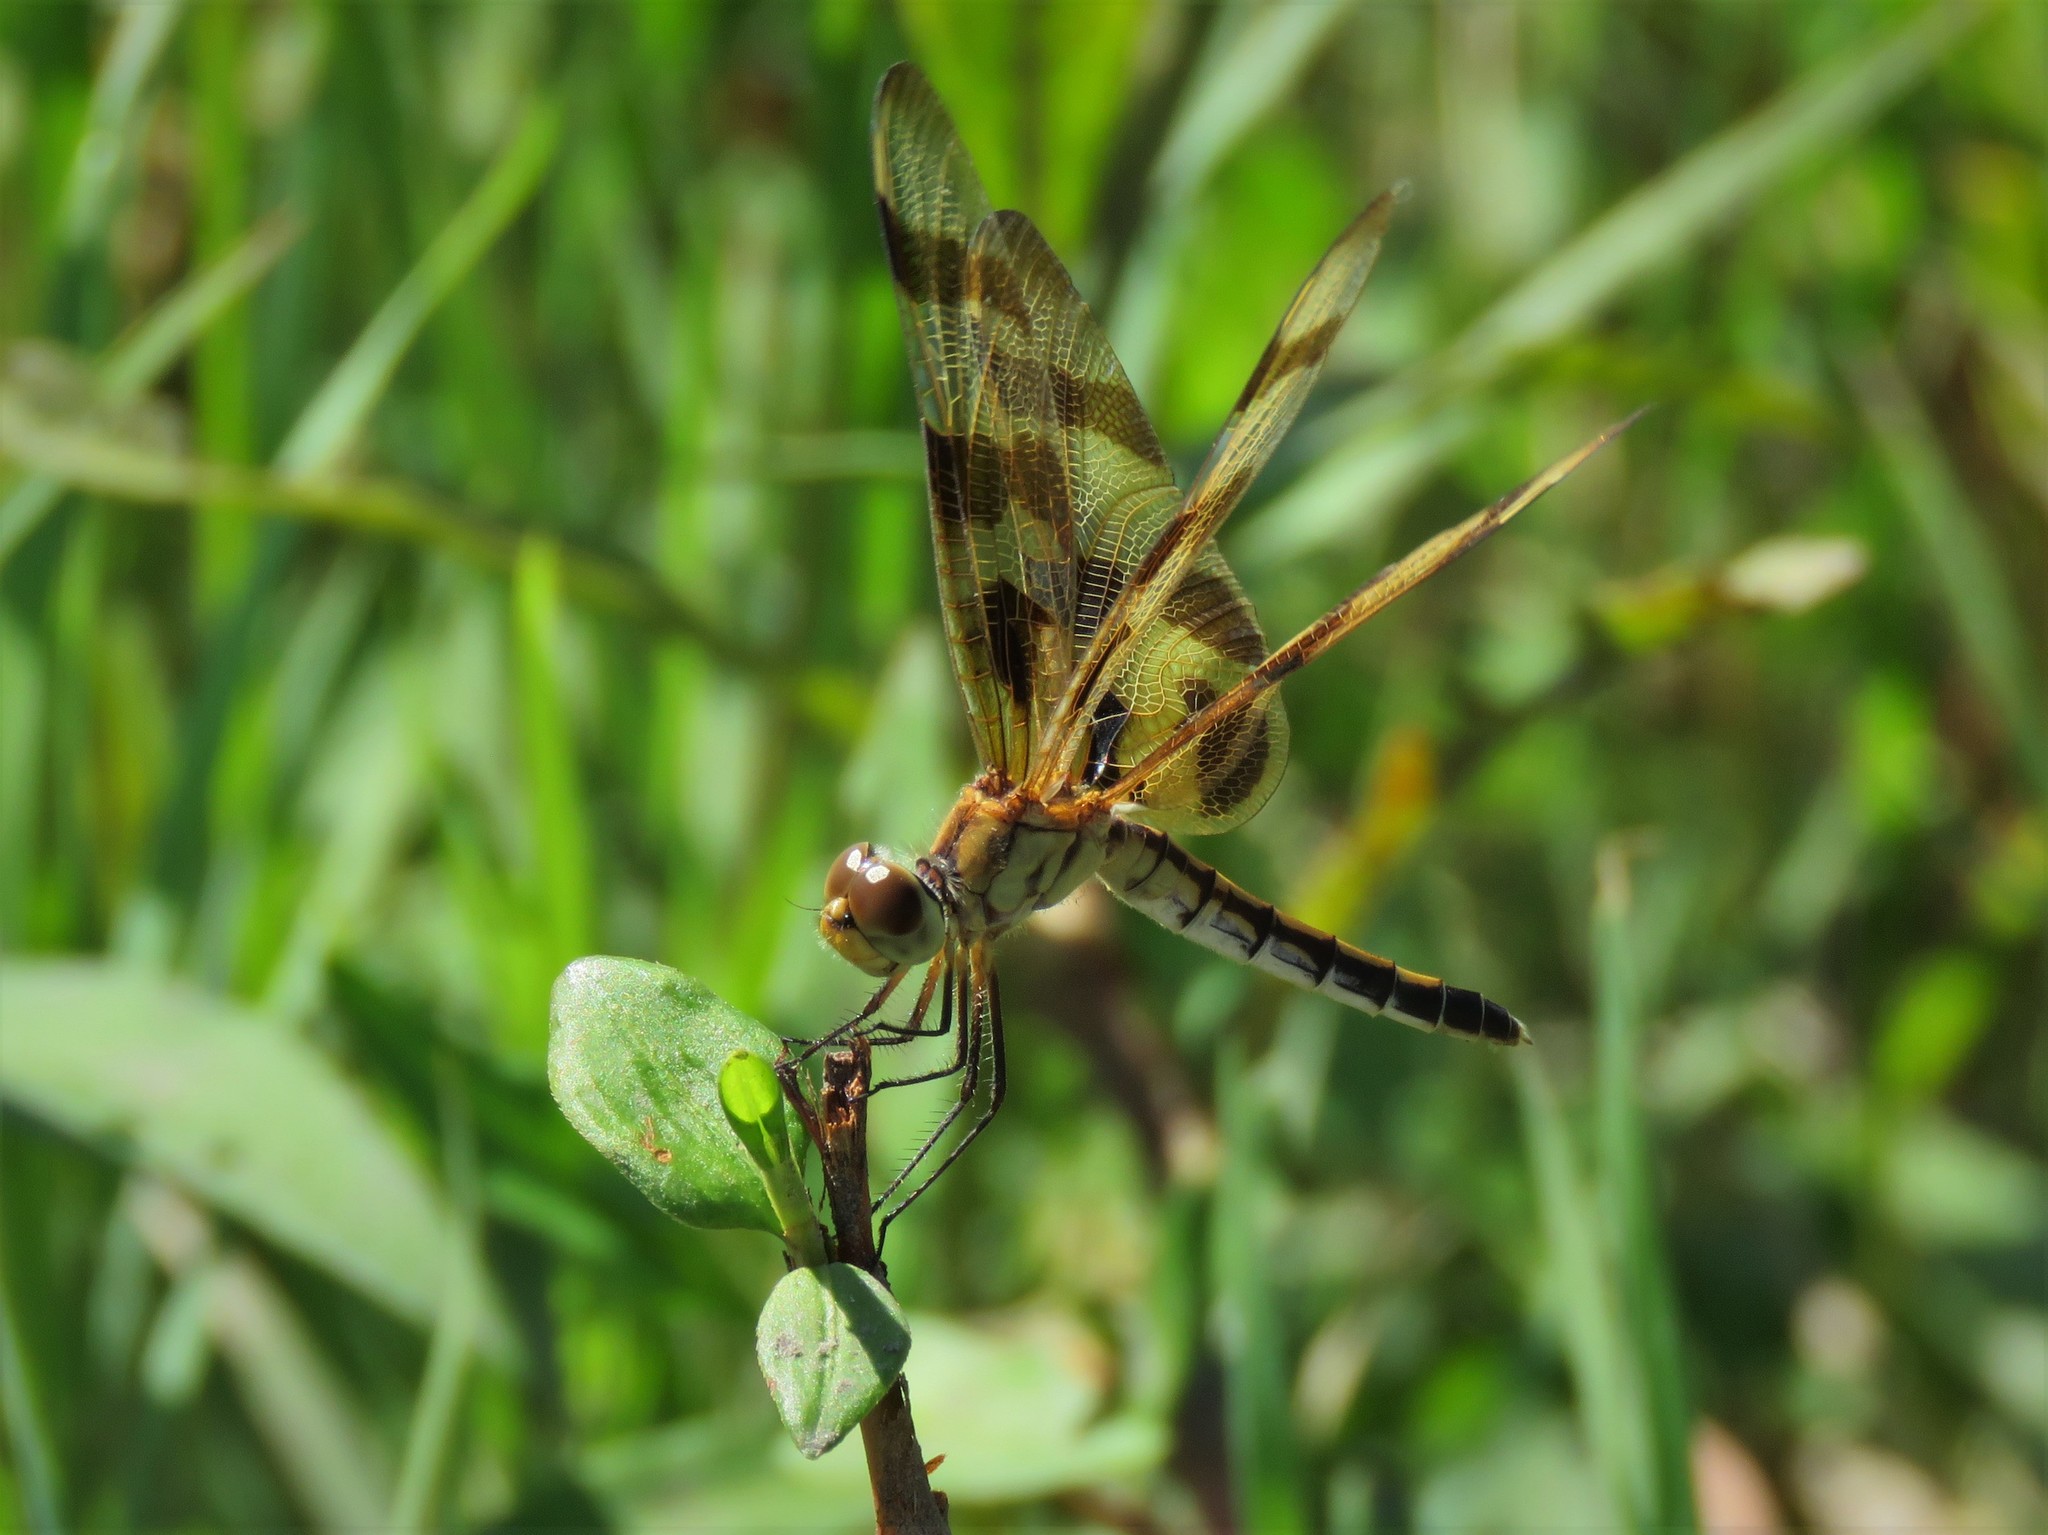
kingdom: Animalia
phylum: Arthropoda
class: Insecta
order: Odonata
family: Libellulidae
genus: Celithemis
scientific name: Celithemis eponina
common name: Halloween pennant
